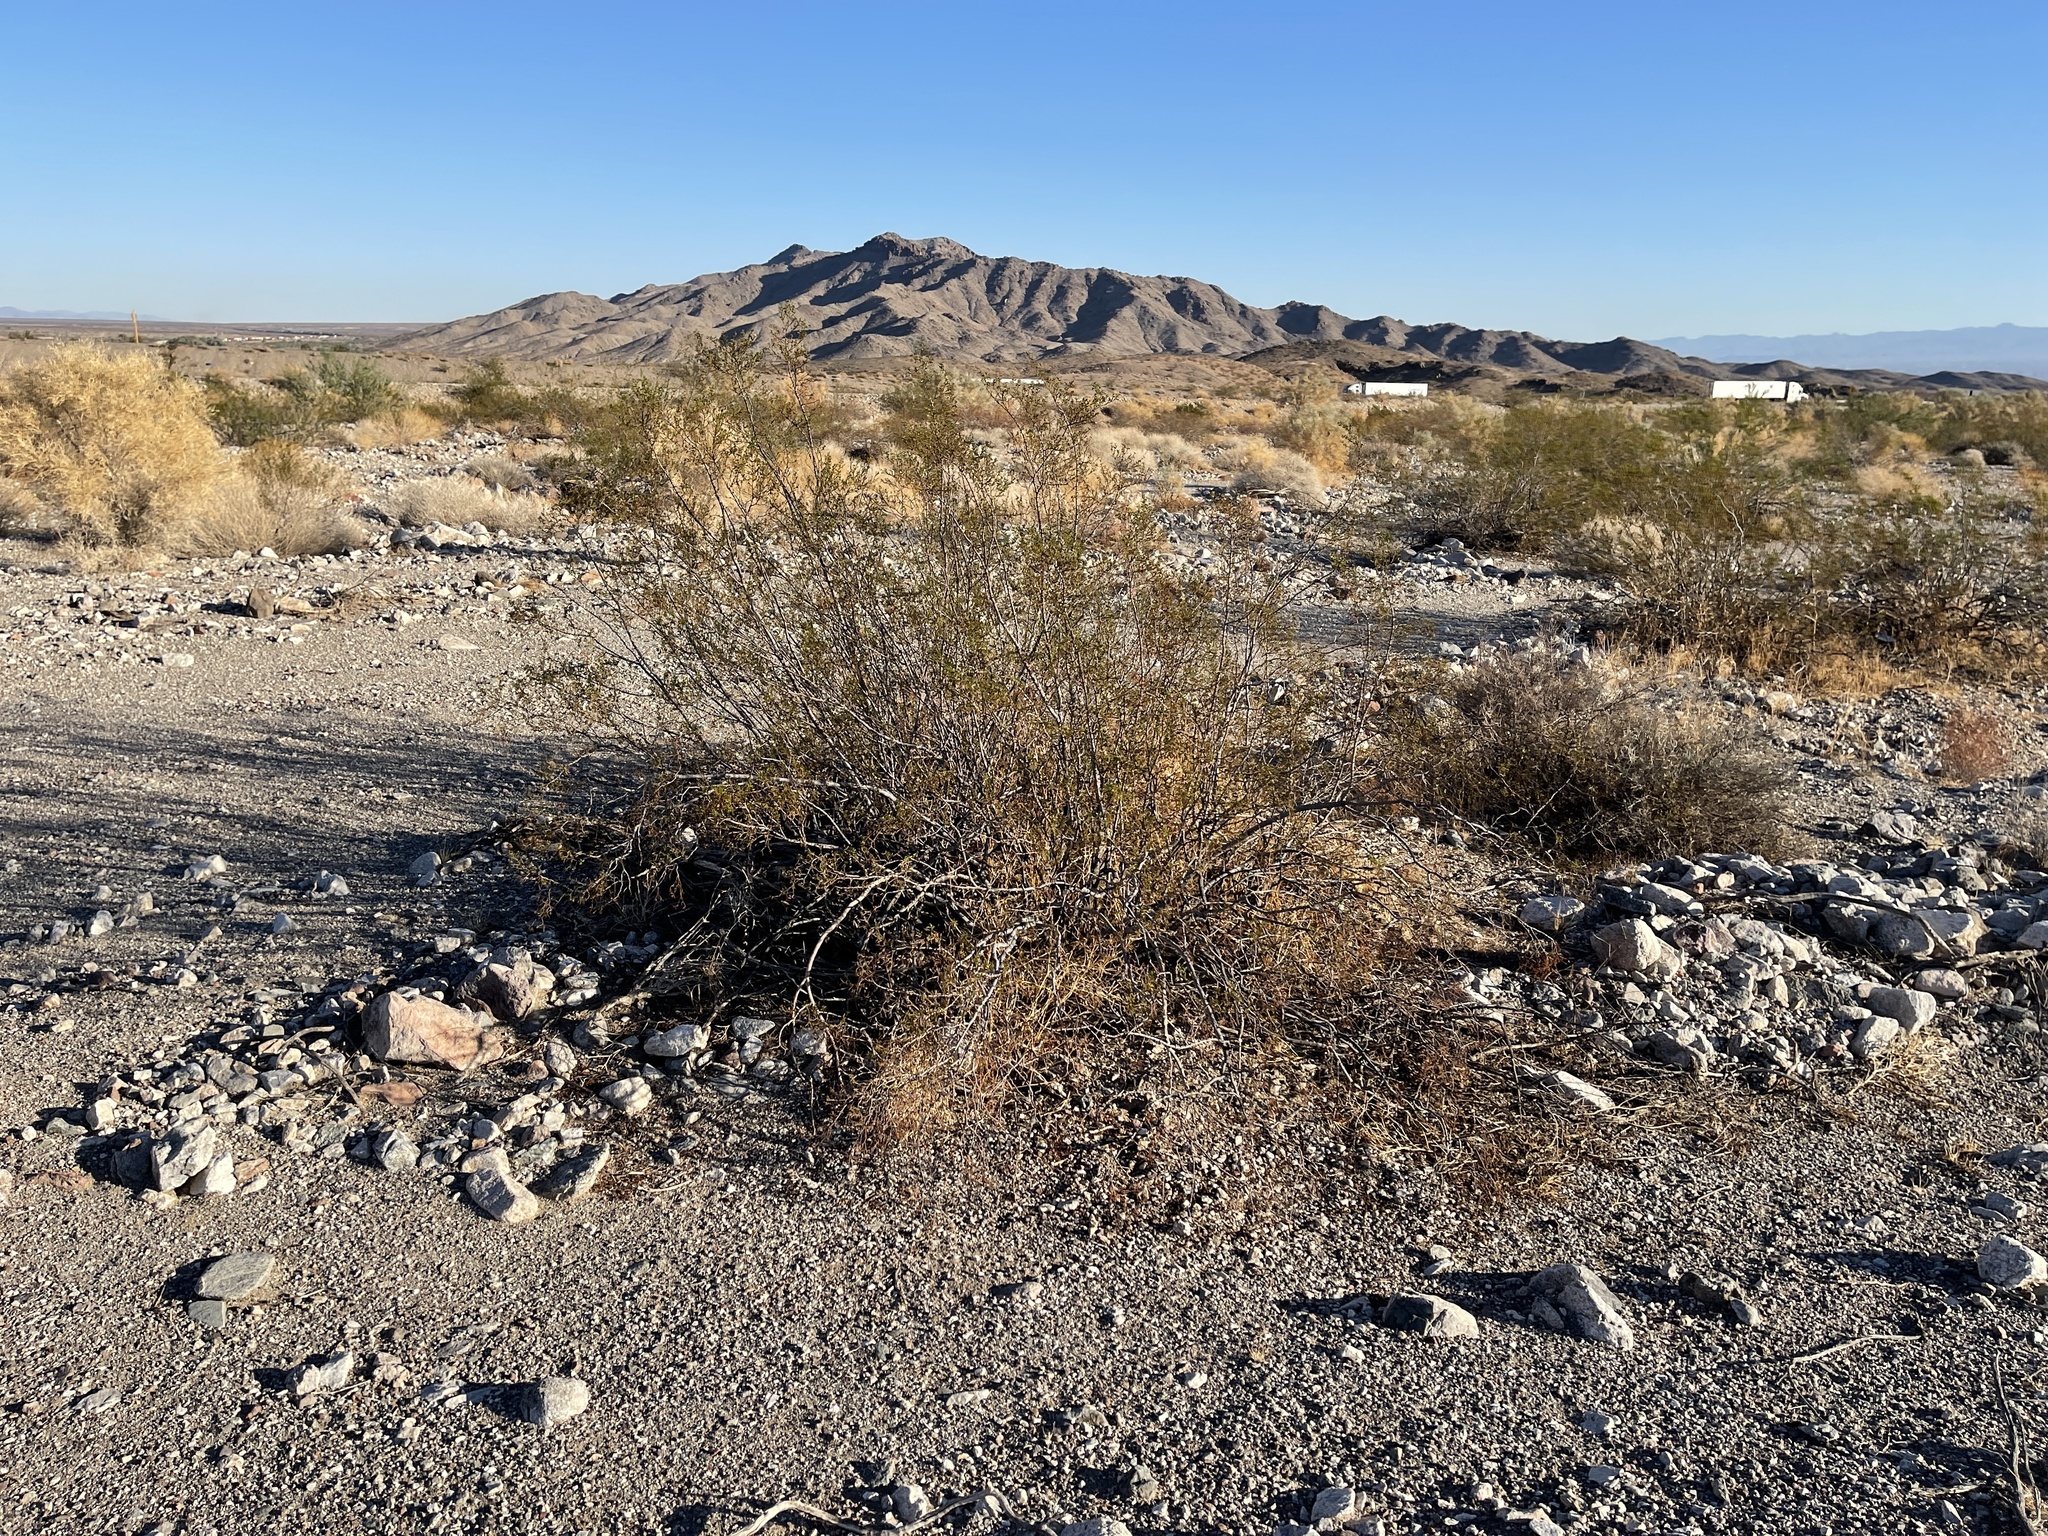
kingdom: Plantae
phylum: Tracheophyta
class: Magnoliopsida
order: Zygophyllales
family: Zygophyllaceae
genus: Larrea
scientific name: Larrea tridentata
